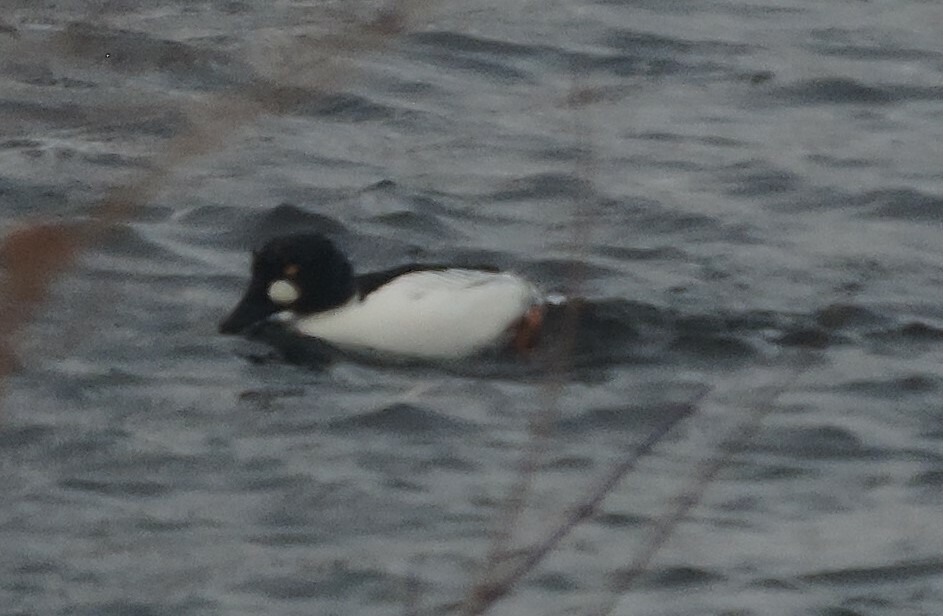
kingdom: Animalia
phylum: Chordata
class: Aves
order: Anseriformes
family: Anatidae
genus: Bucephala
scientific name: Bucephala clangula
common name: Common goldeneye
